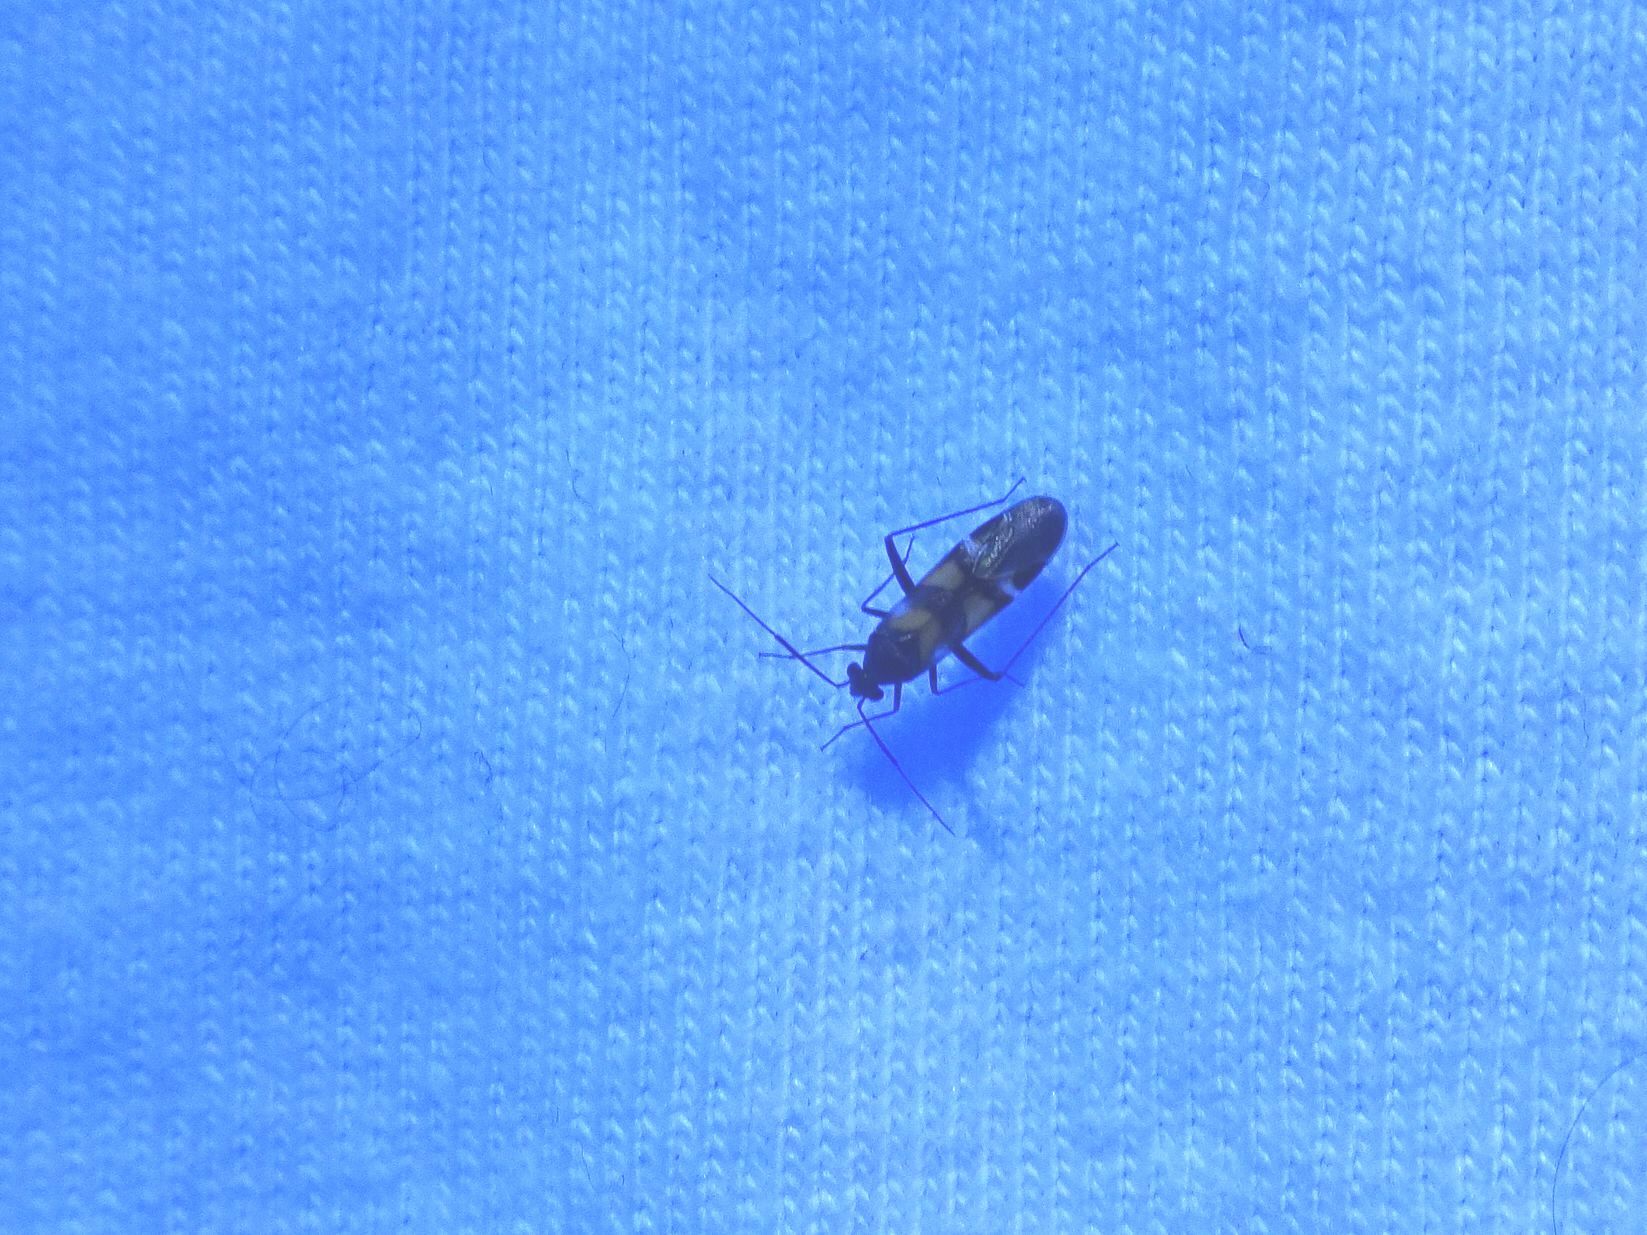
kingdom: Animalia
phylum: Arthropoda
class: Insecta
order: Hemiptera
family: Miridae
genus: Karoocapsus
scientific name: Karoocapsus pulchrus
